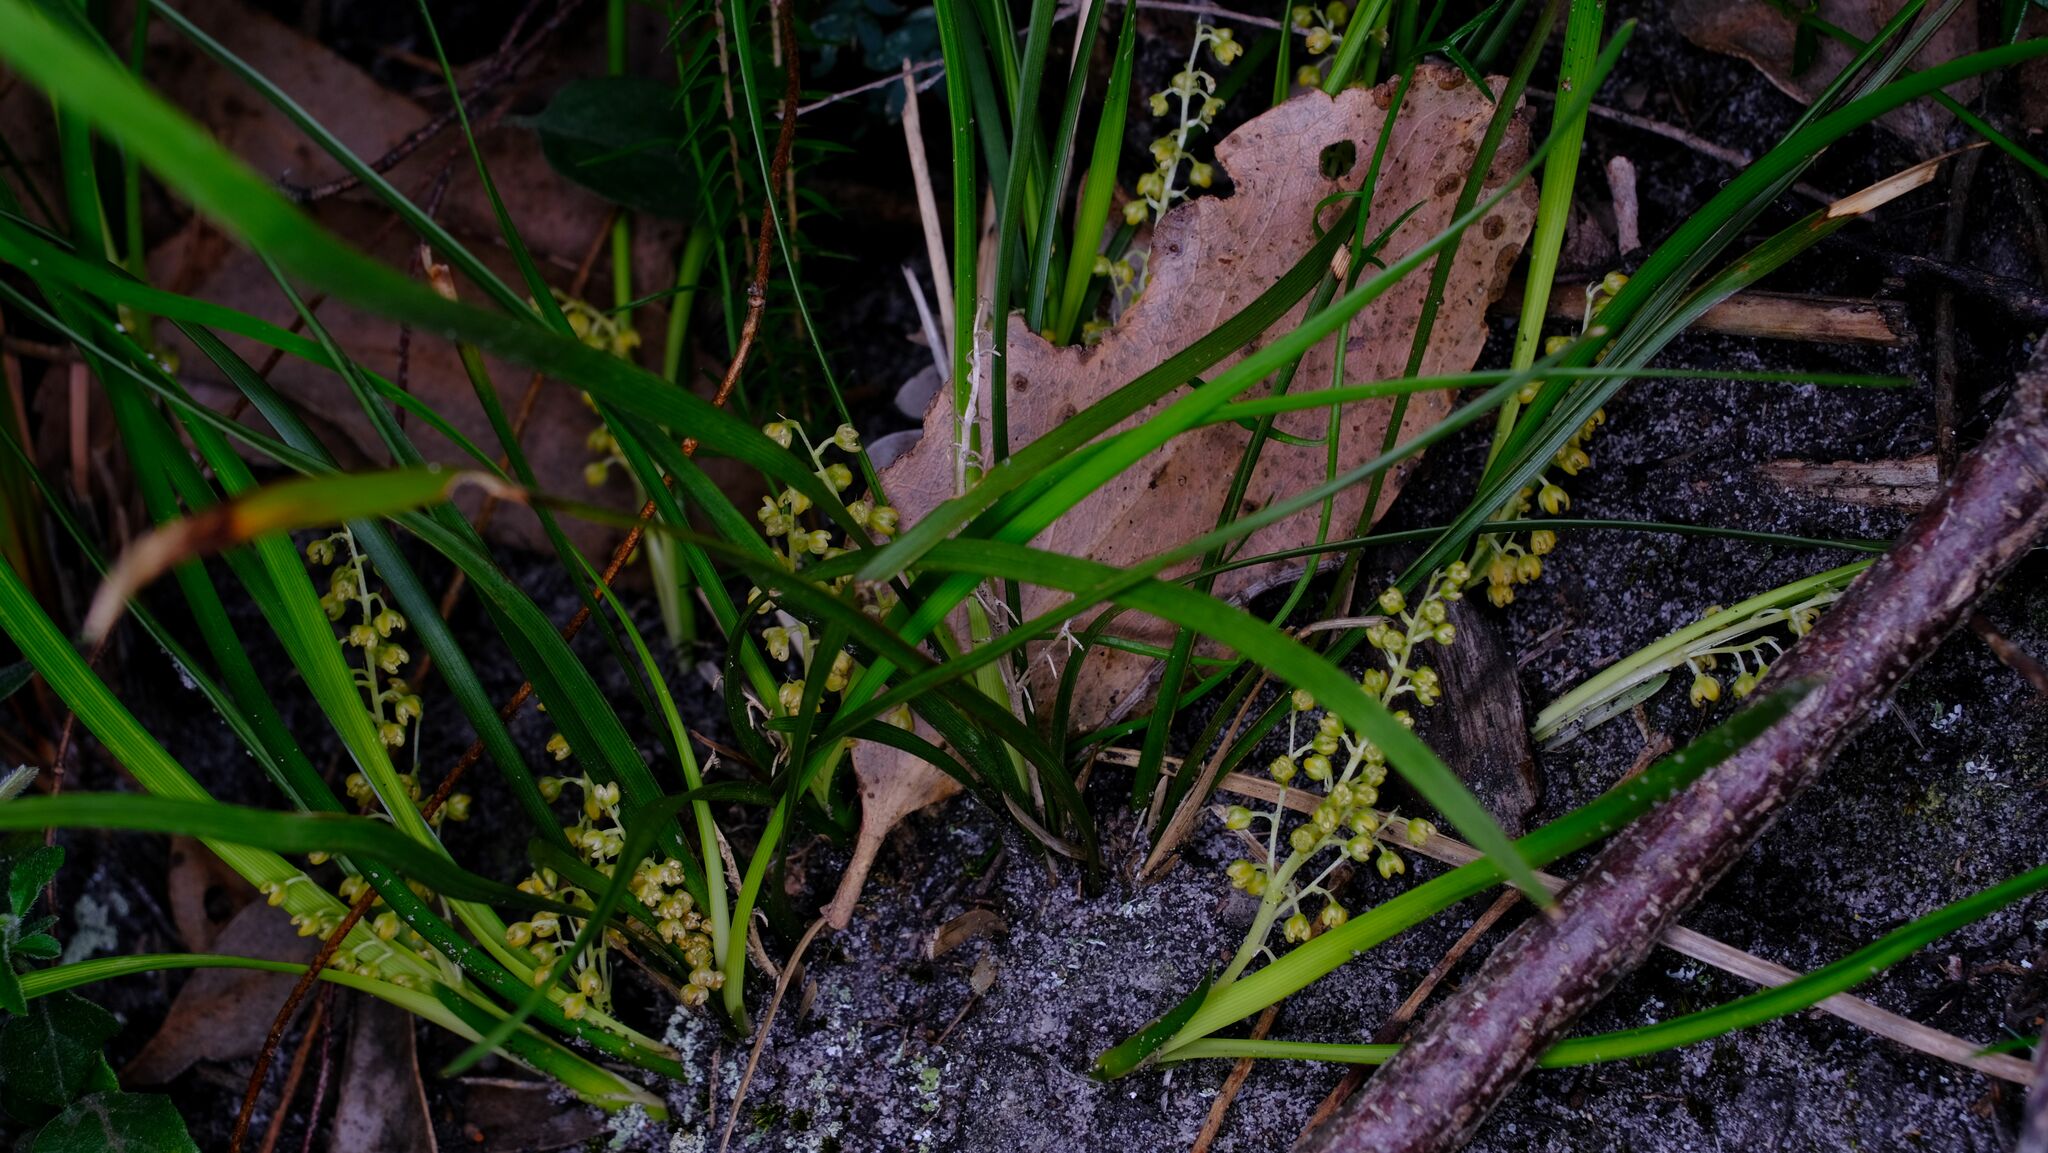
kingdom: Plantae
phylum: Tracheophyta
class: Liliopsida
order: Asparagales
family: Asparagaceae
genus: Lomandra
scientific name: Lomandra filiformis
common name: Wattle mat-rush
